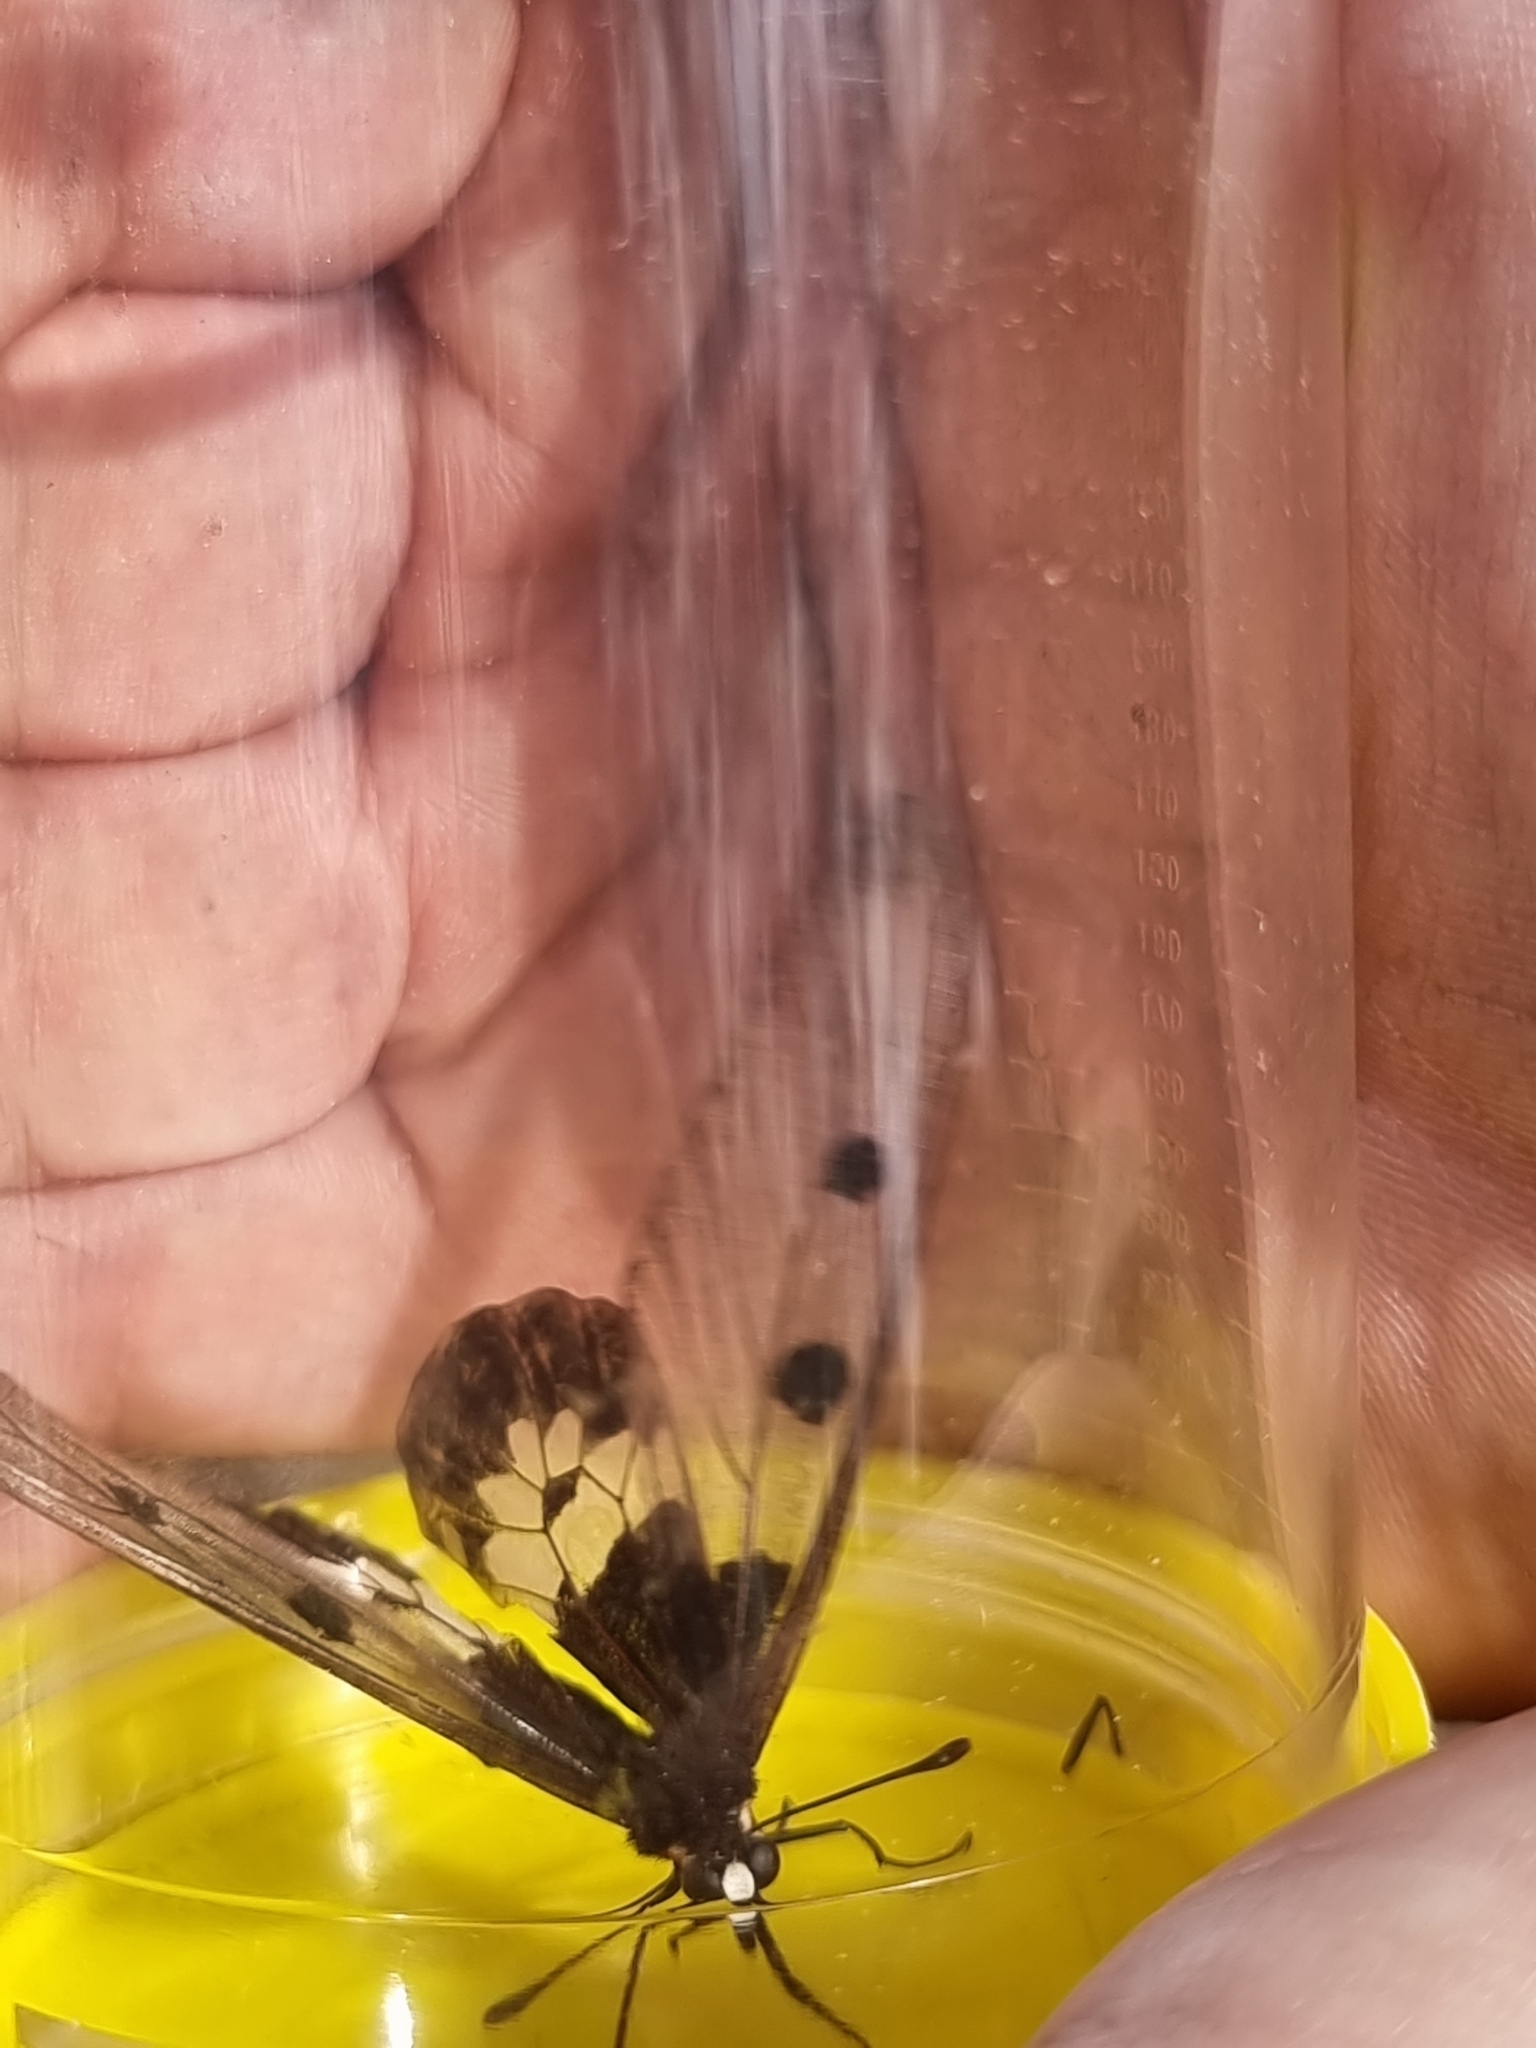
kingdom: Animalia
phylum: Arthropoda
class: Insecta
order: Lepidoptera
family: Papilionidae
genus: Cressida
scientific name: Cressida cressida
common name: Big greasy
